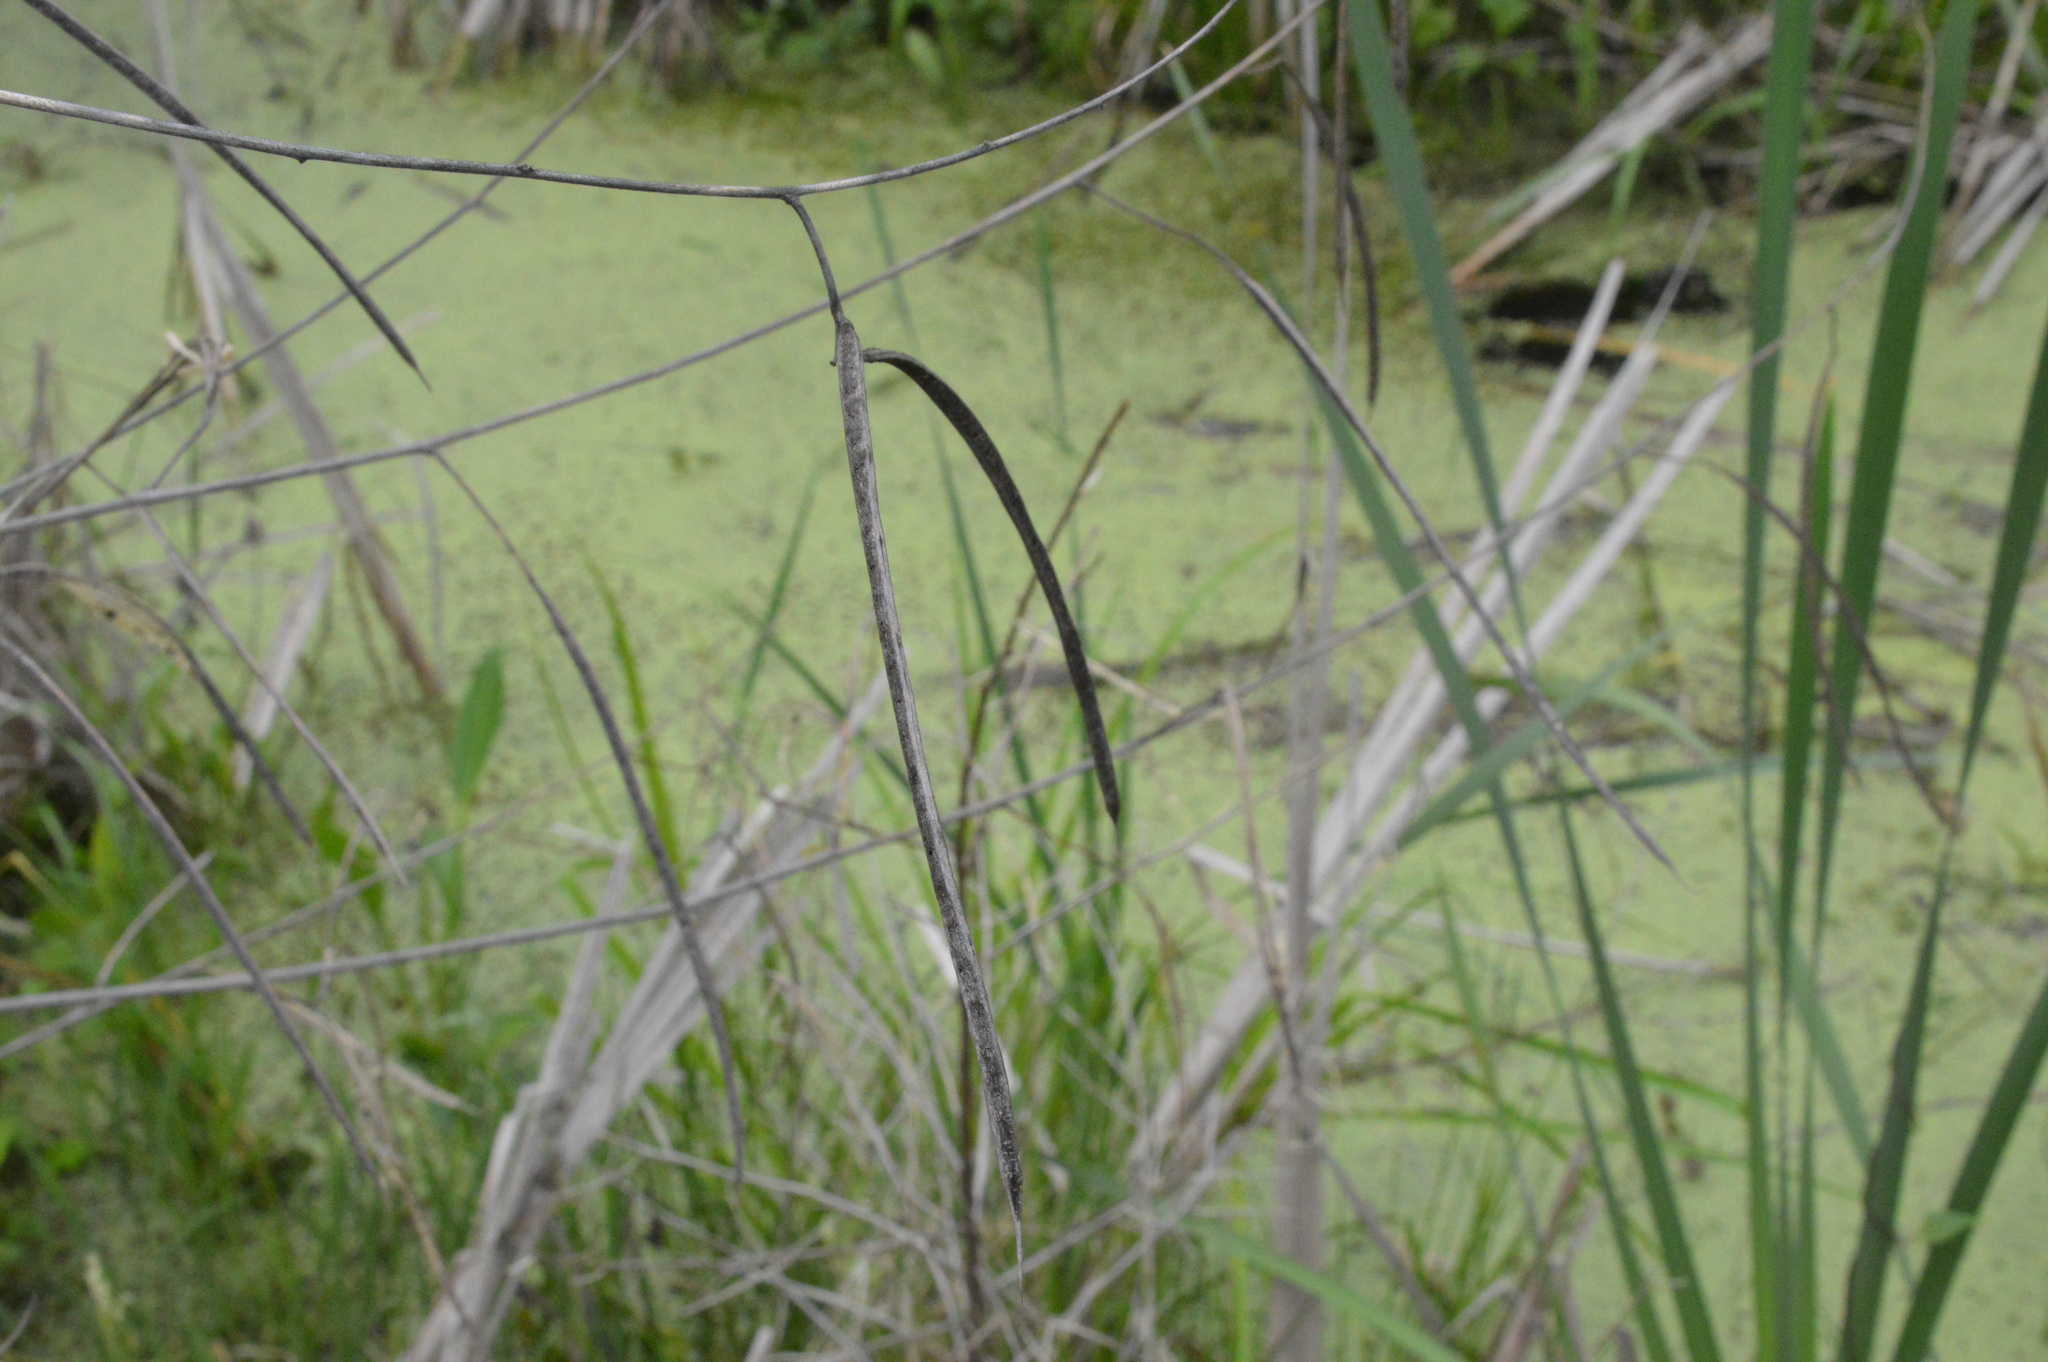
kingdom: Plantae
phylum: Tracheophyta
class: Magnoliopsida
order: Fabales
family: Fabaceae
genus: Sesbania
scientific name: Sesbania herbacea
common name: Bigpod sesbania
